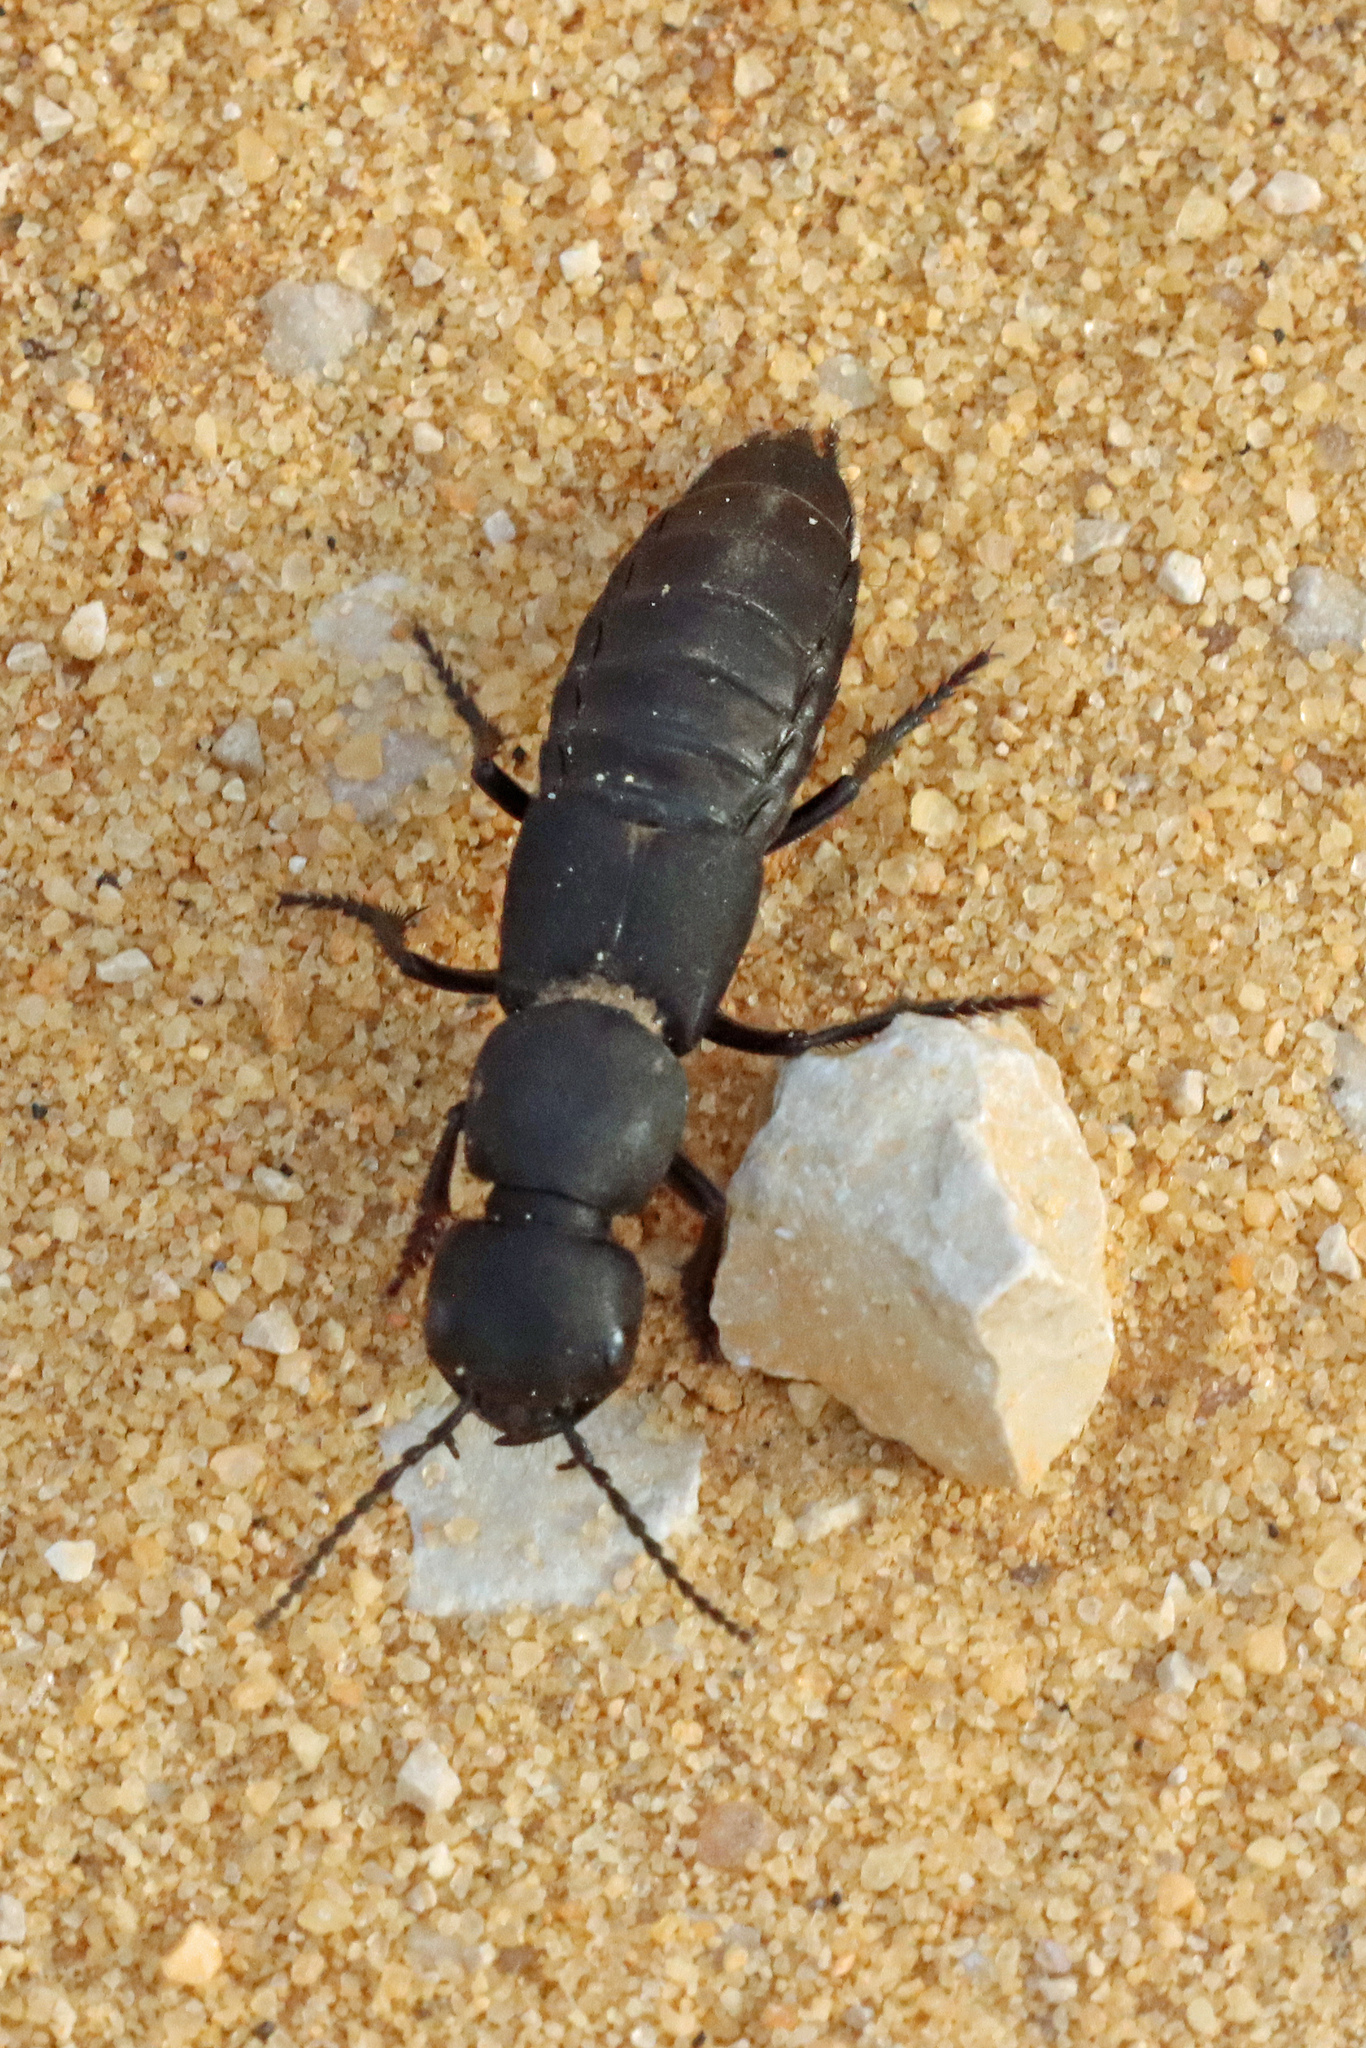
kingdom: Animalia
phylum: Arthropoda
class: Insecta
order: Coleoptera
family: Staphylinidae
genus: Ocypus
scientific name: Ocypus olens
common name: Devil's coach-horse
